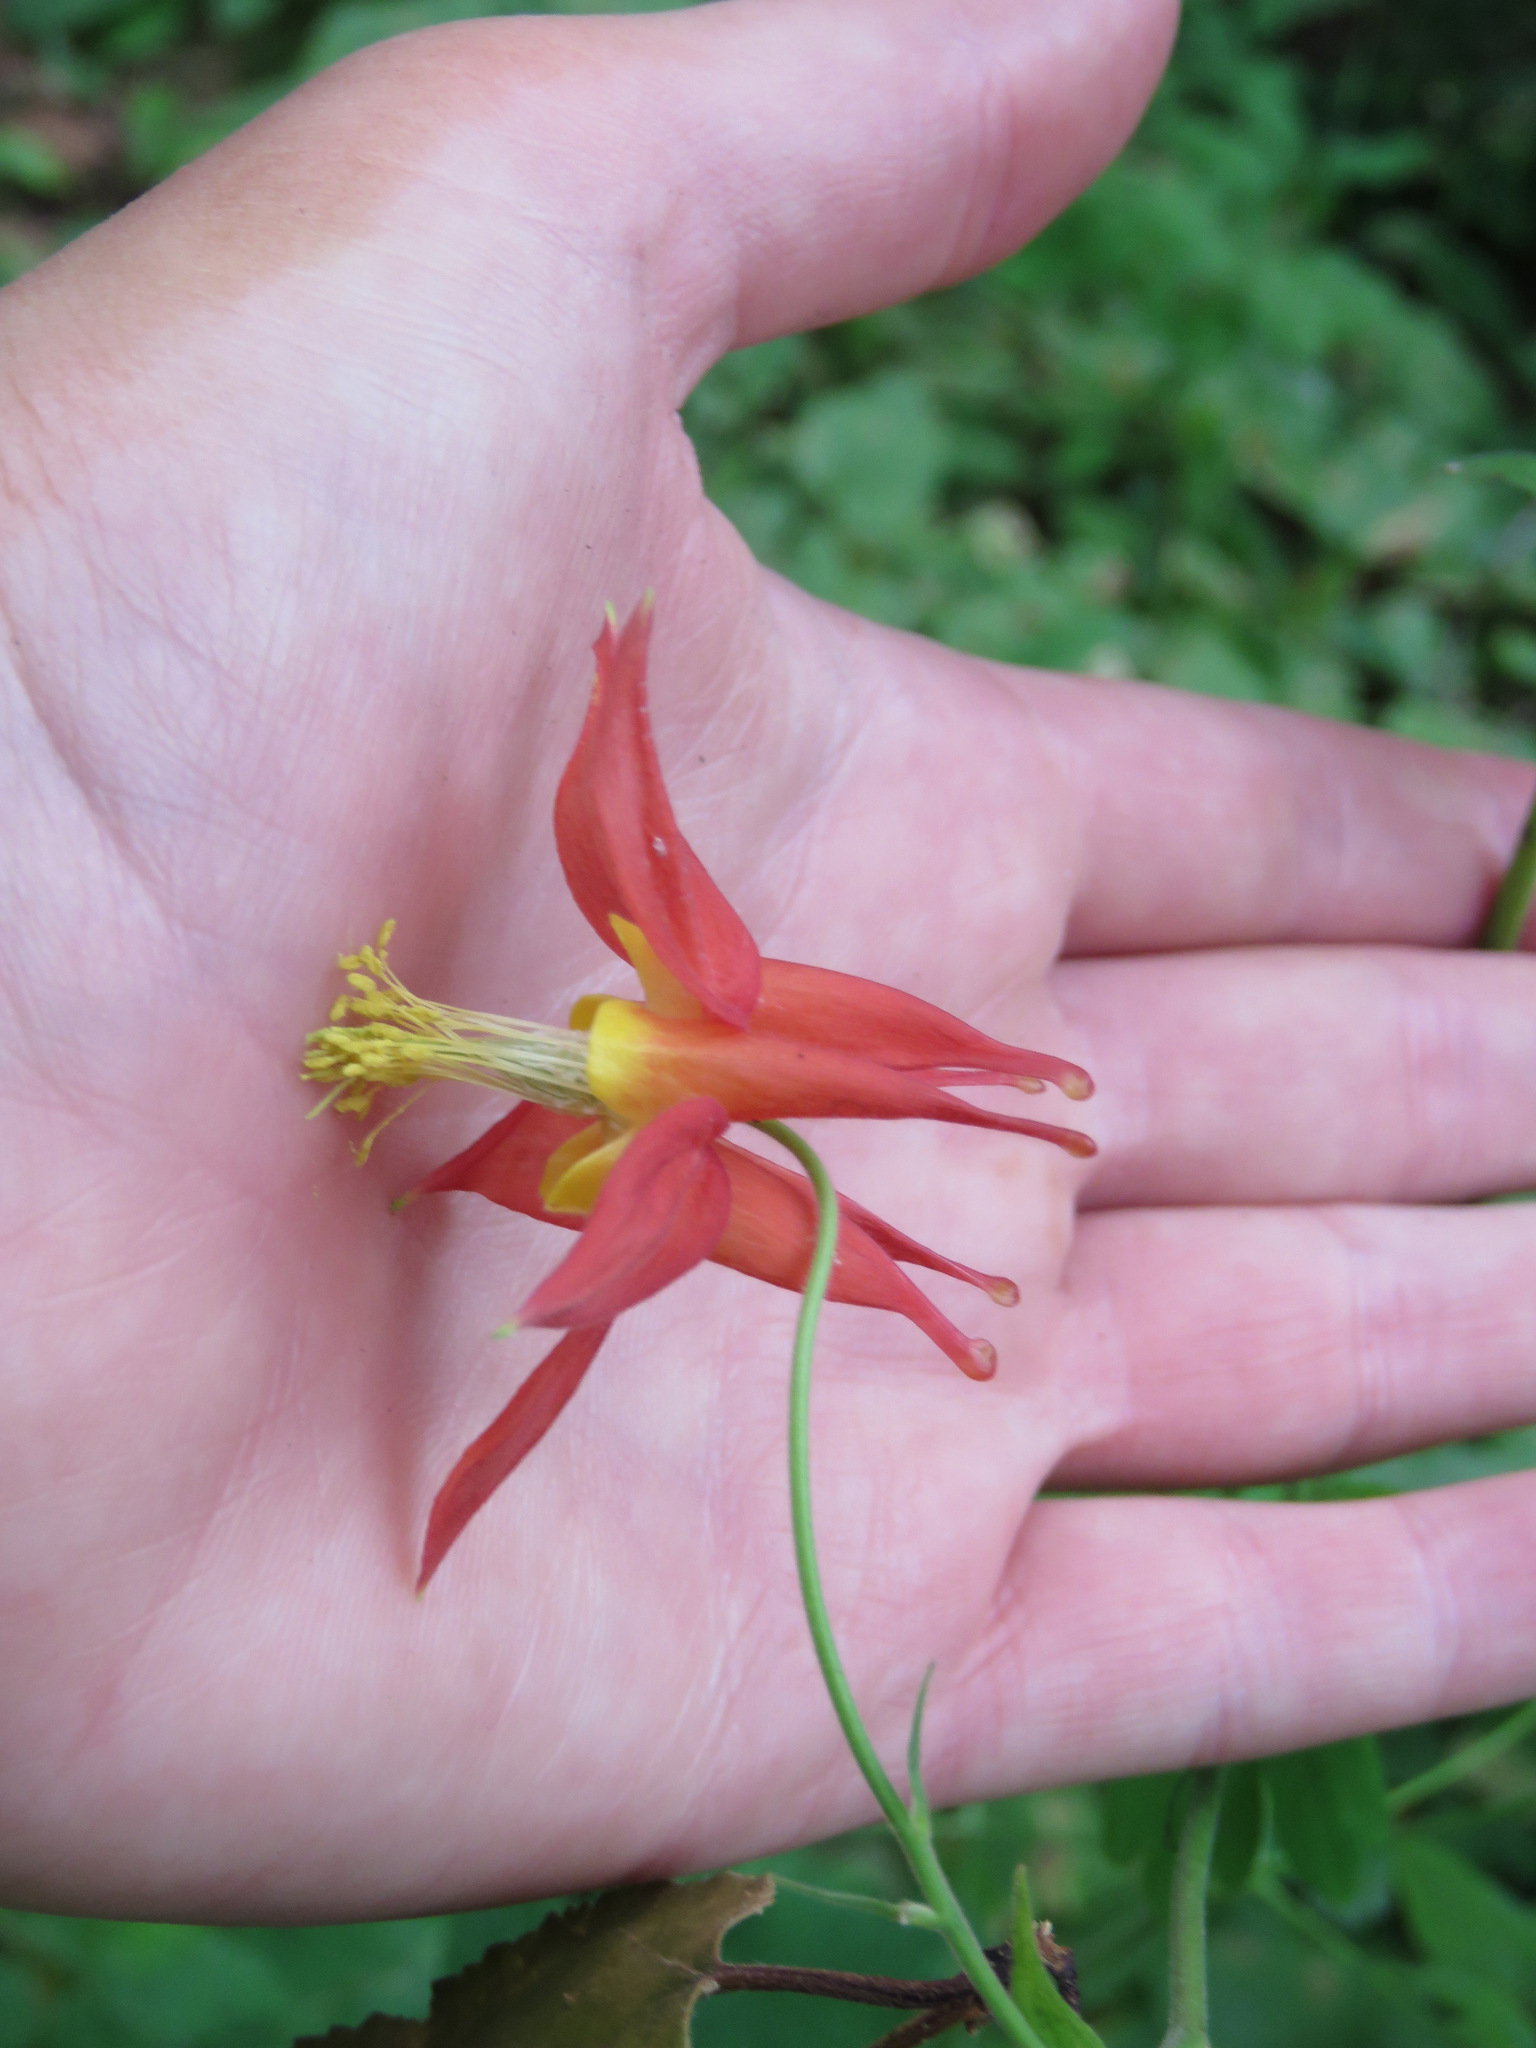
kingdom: Plantae
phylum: Tracheophyta
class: Magnoliopsida
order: Ranunculales
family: Ranunculaceae
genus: Aquilegia
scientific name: Aquilegia formosa
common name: Sitka columbine
